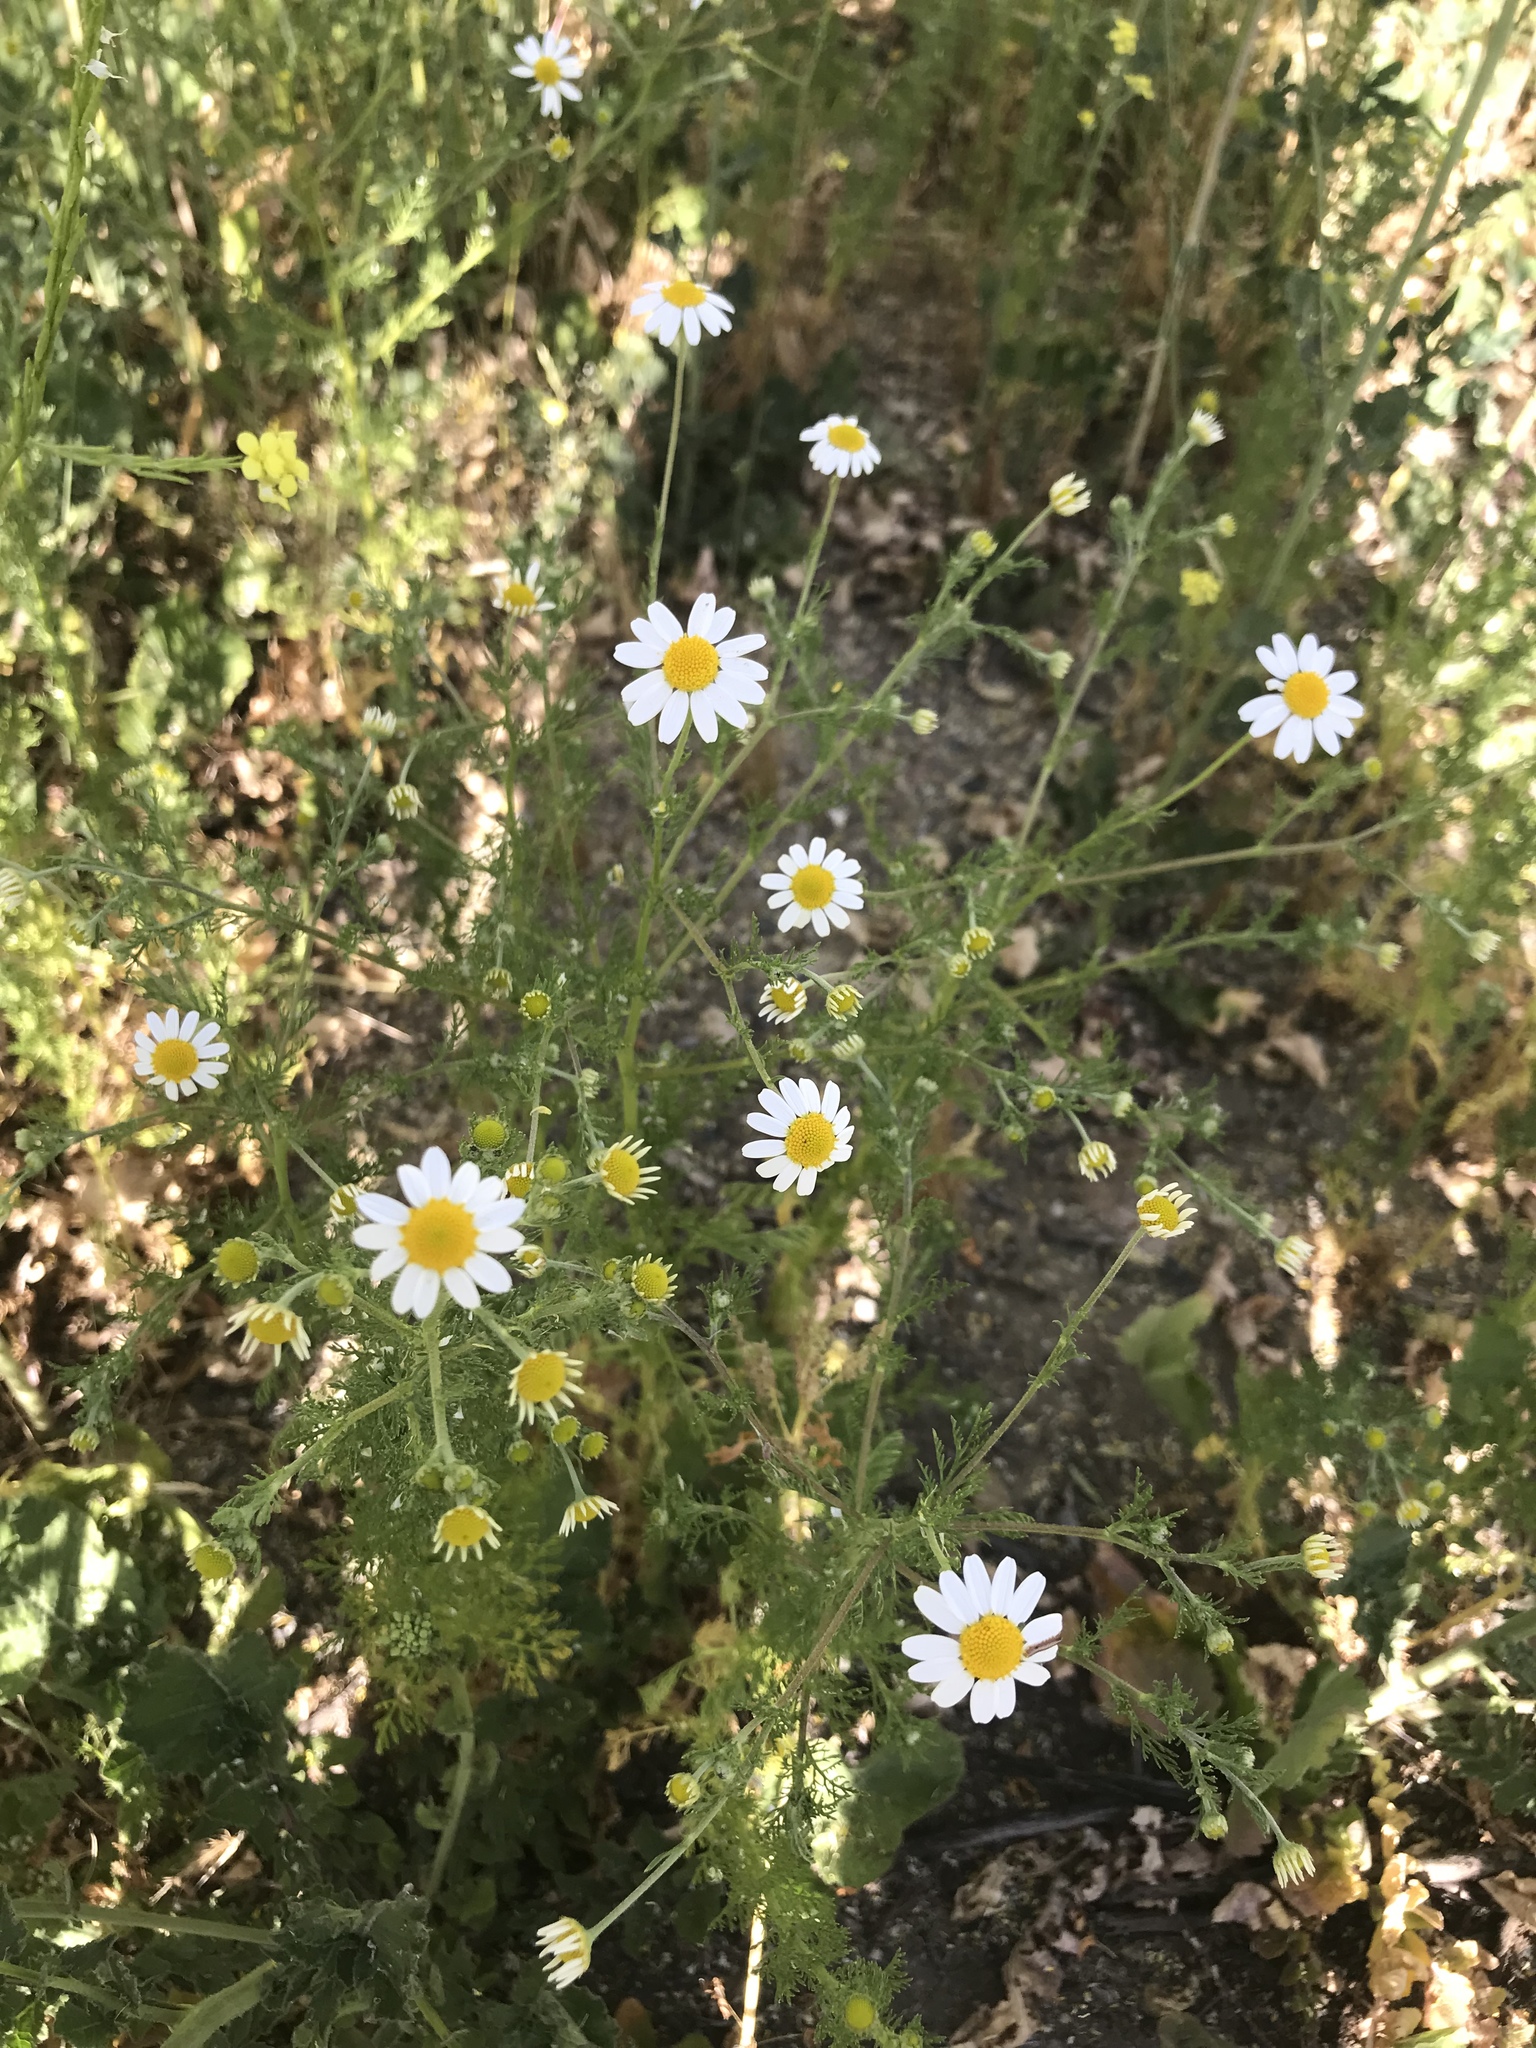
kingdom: Plantae
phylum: Tracheophyta
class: Magnoliopsida
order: Asterales
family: Asteraceae
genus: Anthemis
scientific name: Anthemis cotula
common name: Stinking chamomile
